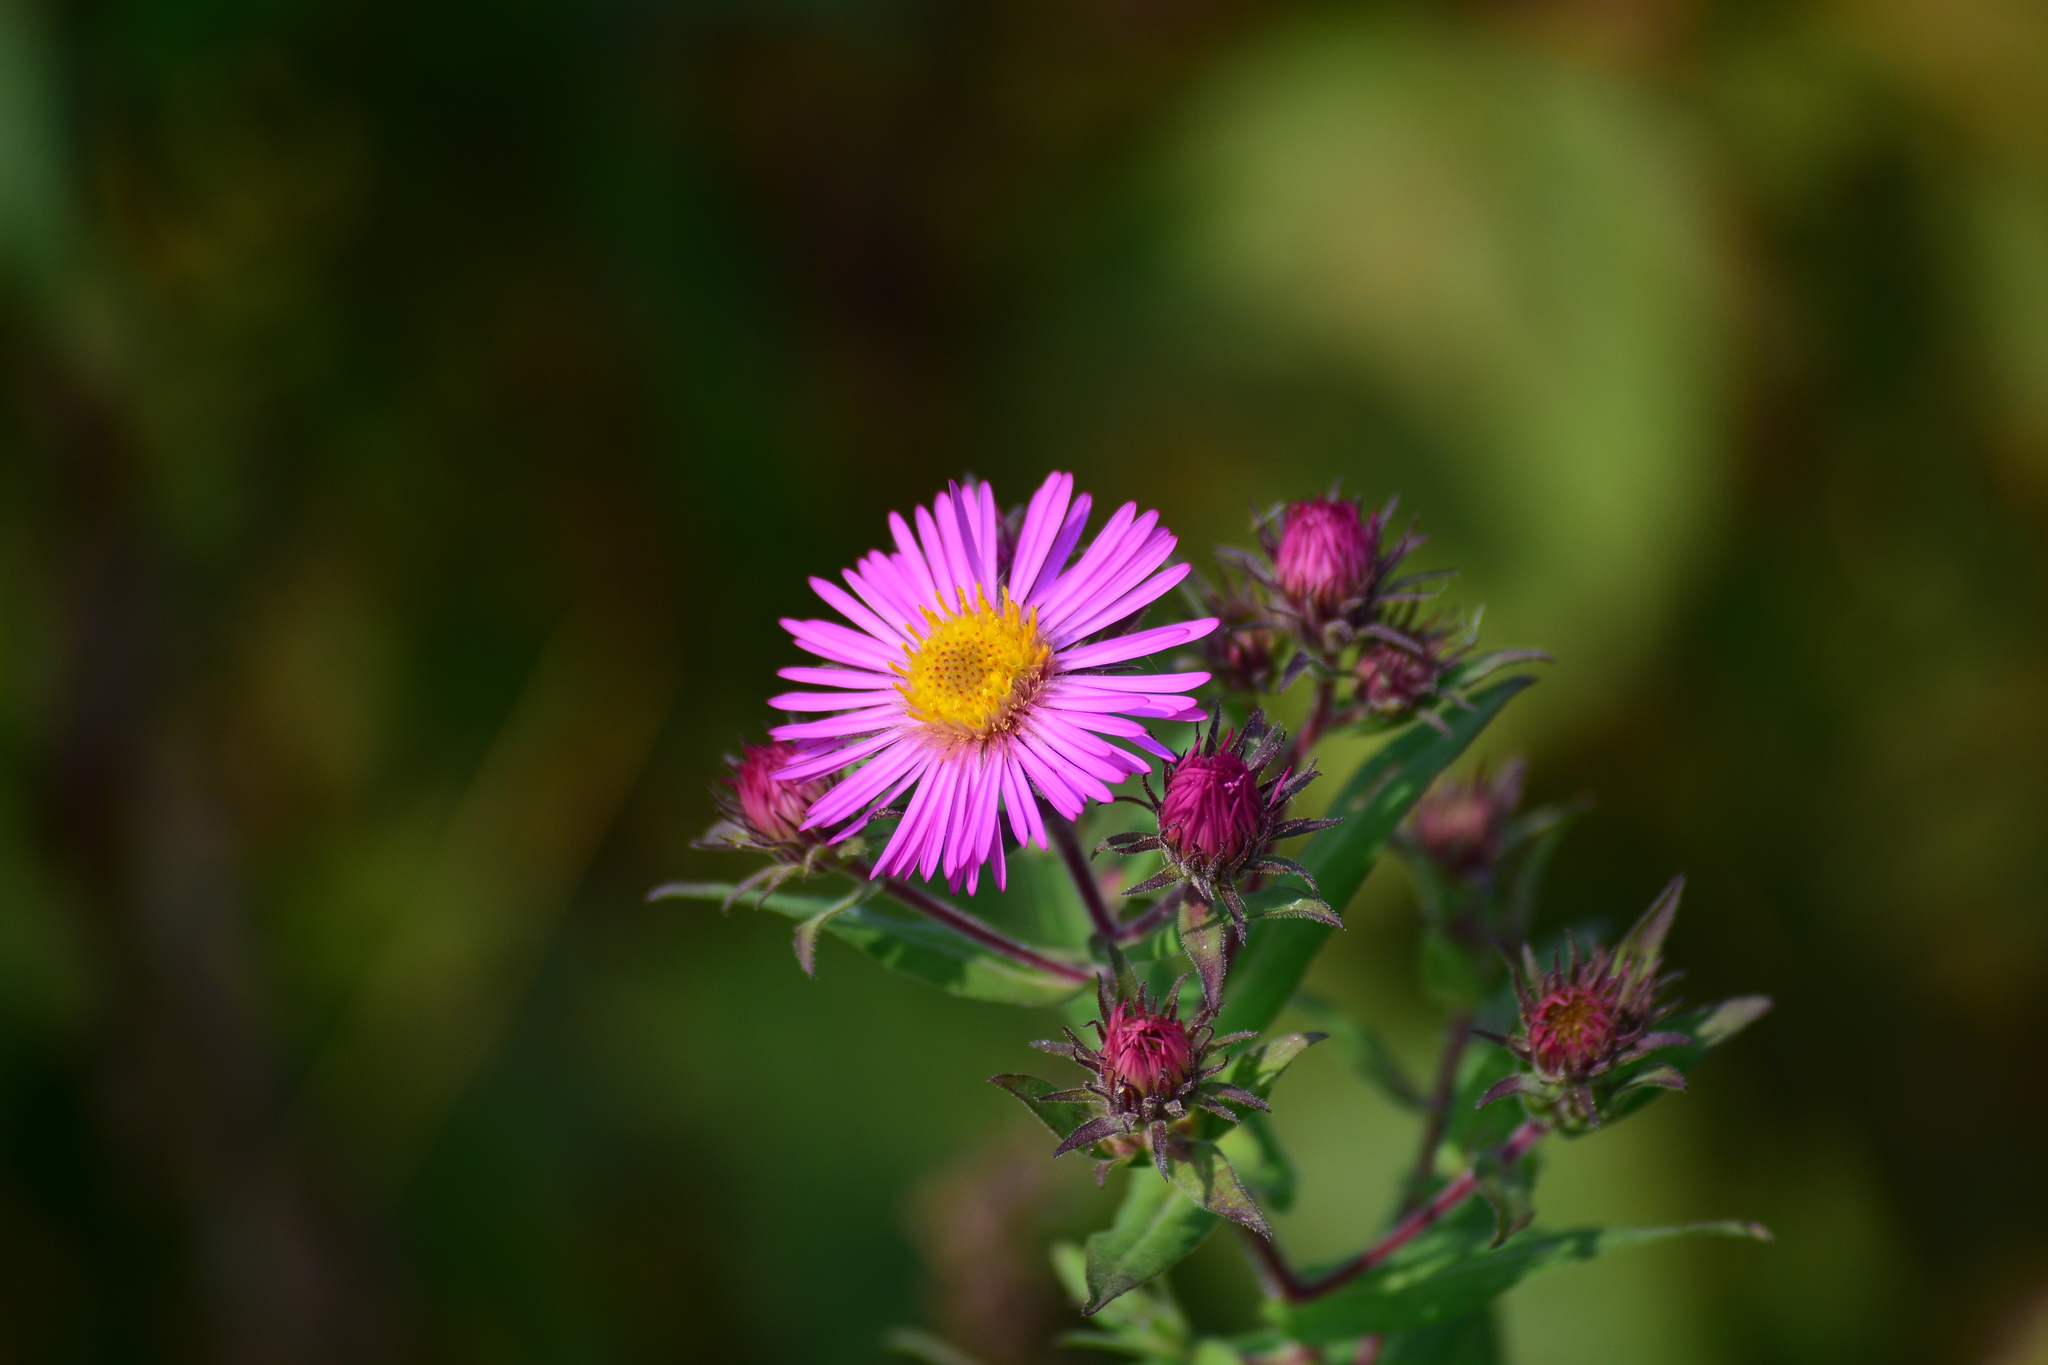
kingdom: Plantae
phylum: Tracheophyta
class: Magnoliopsida
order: Asterales
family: Asteraceae
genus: Symphyotrichum
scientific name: Symphyotrichum novae-angliae
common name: Michaelmas daisy
